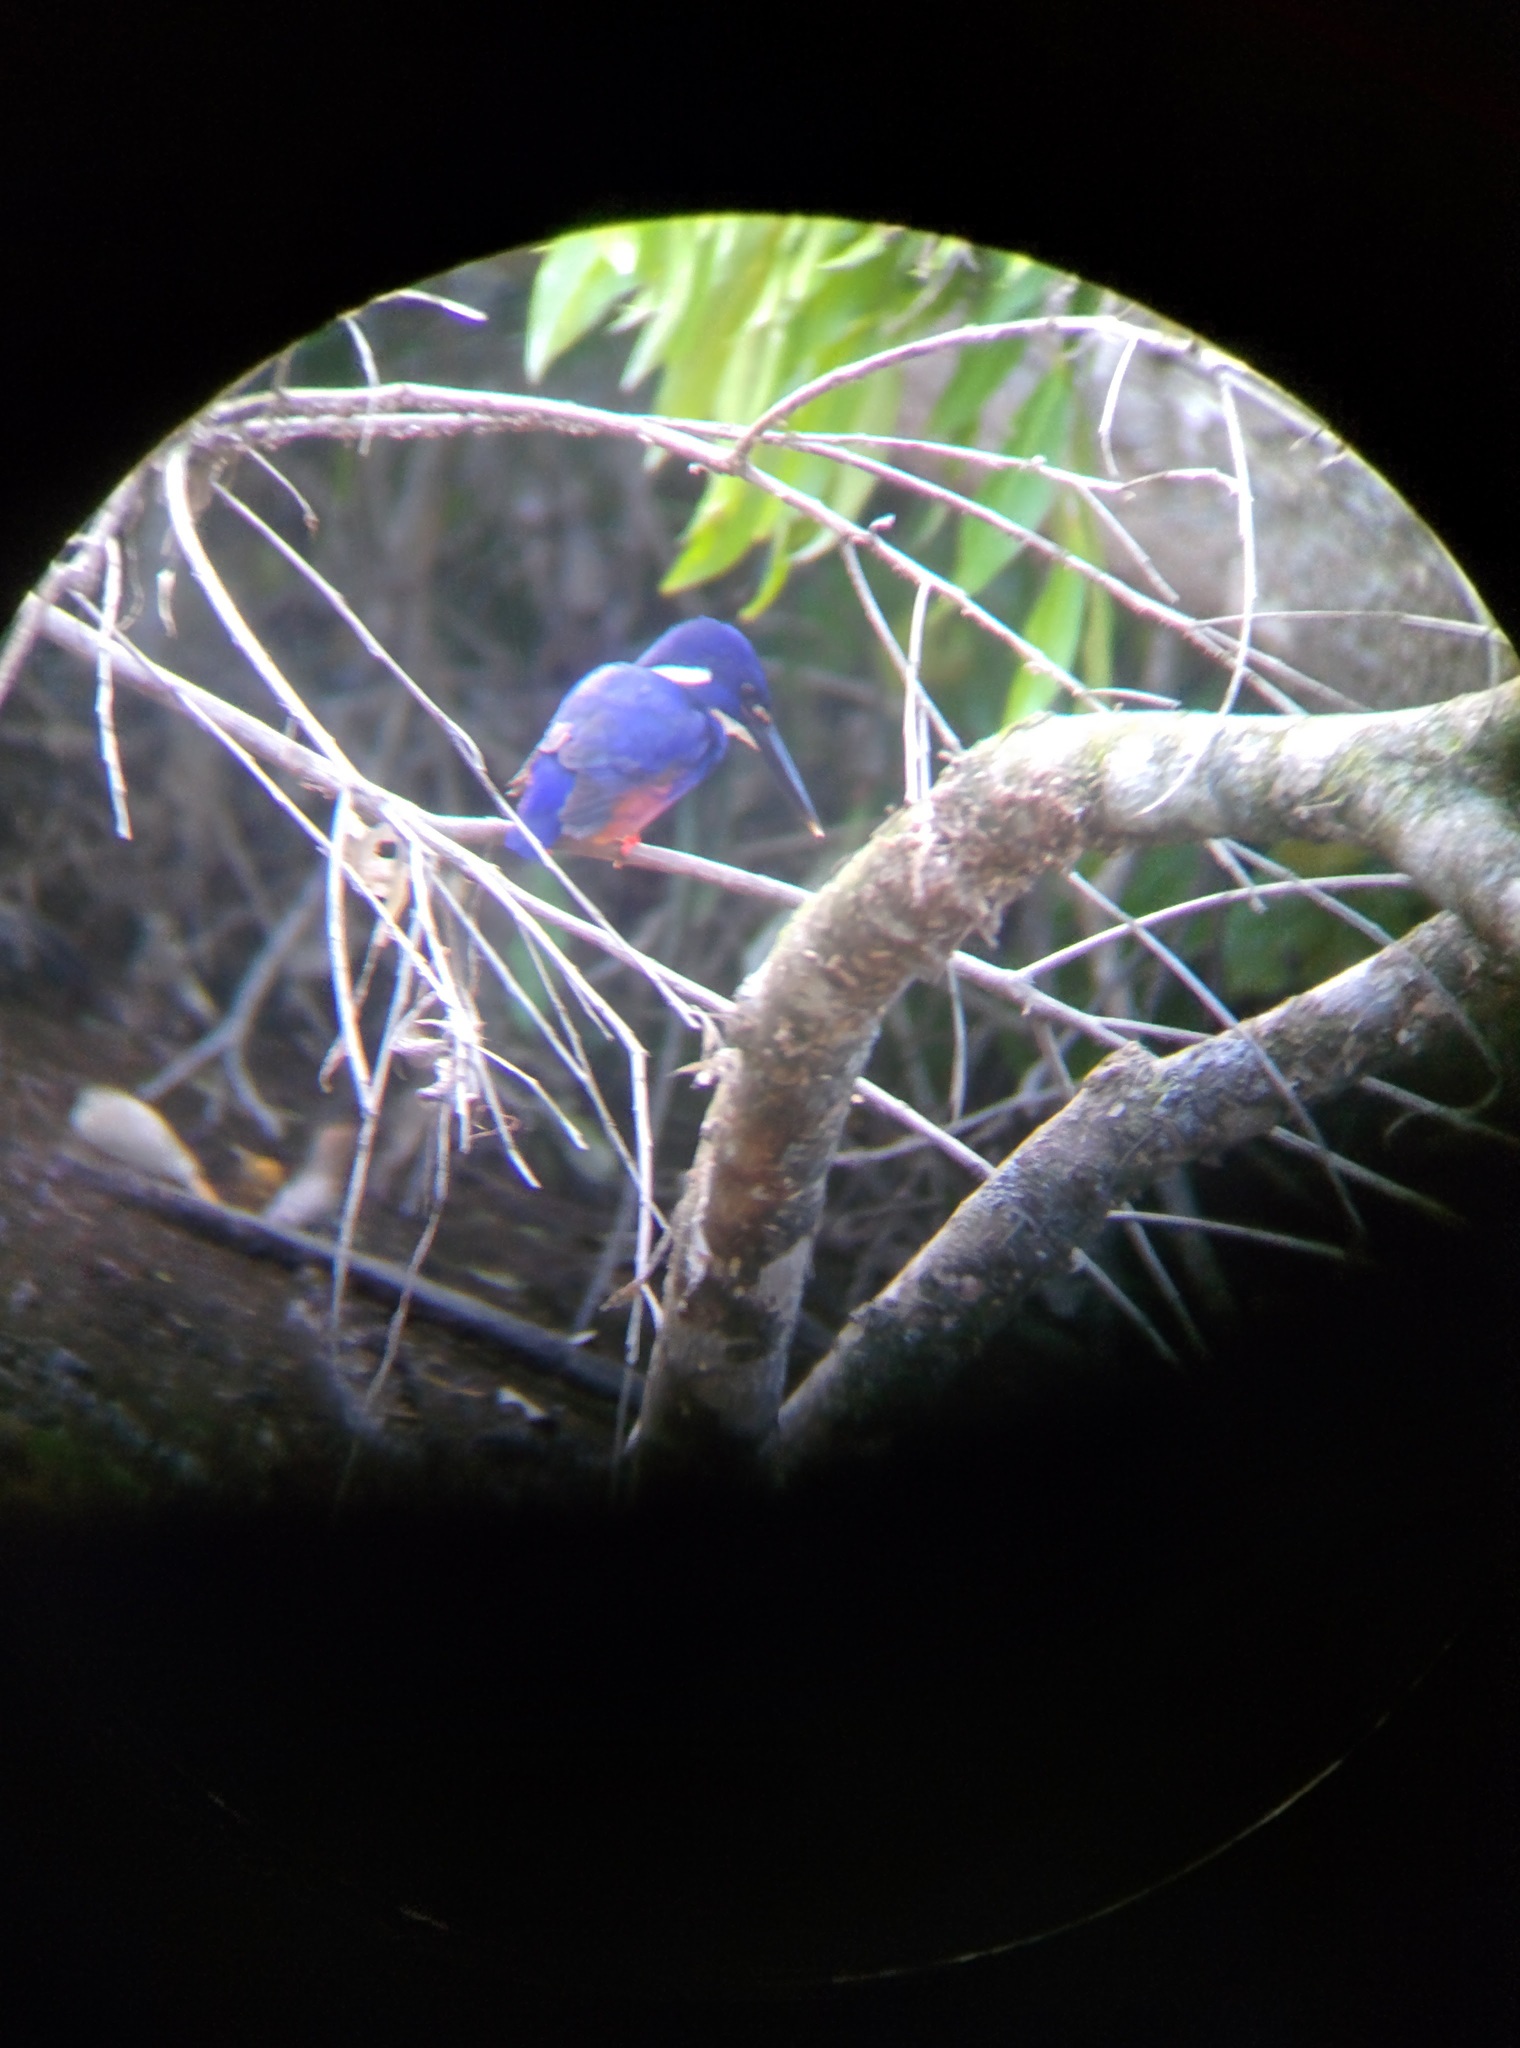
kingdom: Animalia
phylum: Chordata
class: Aves
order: Coraciiformes
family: Alcedinidae
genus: Ceyx
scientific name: Ceyx azureus
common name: Azure kingfisher
